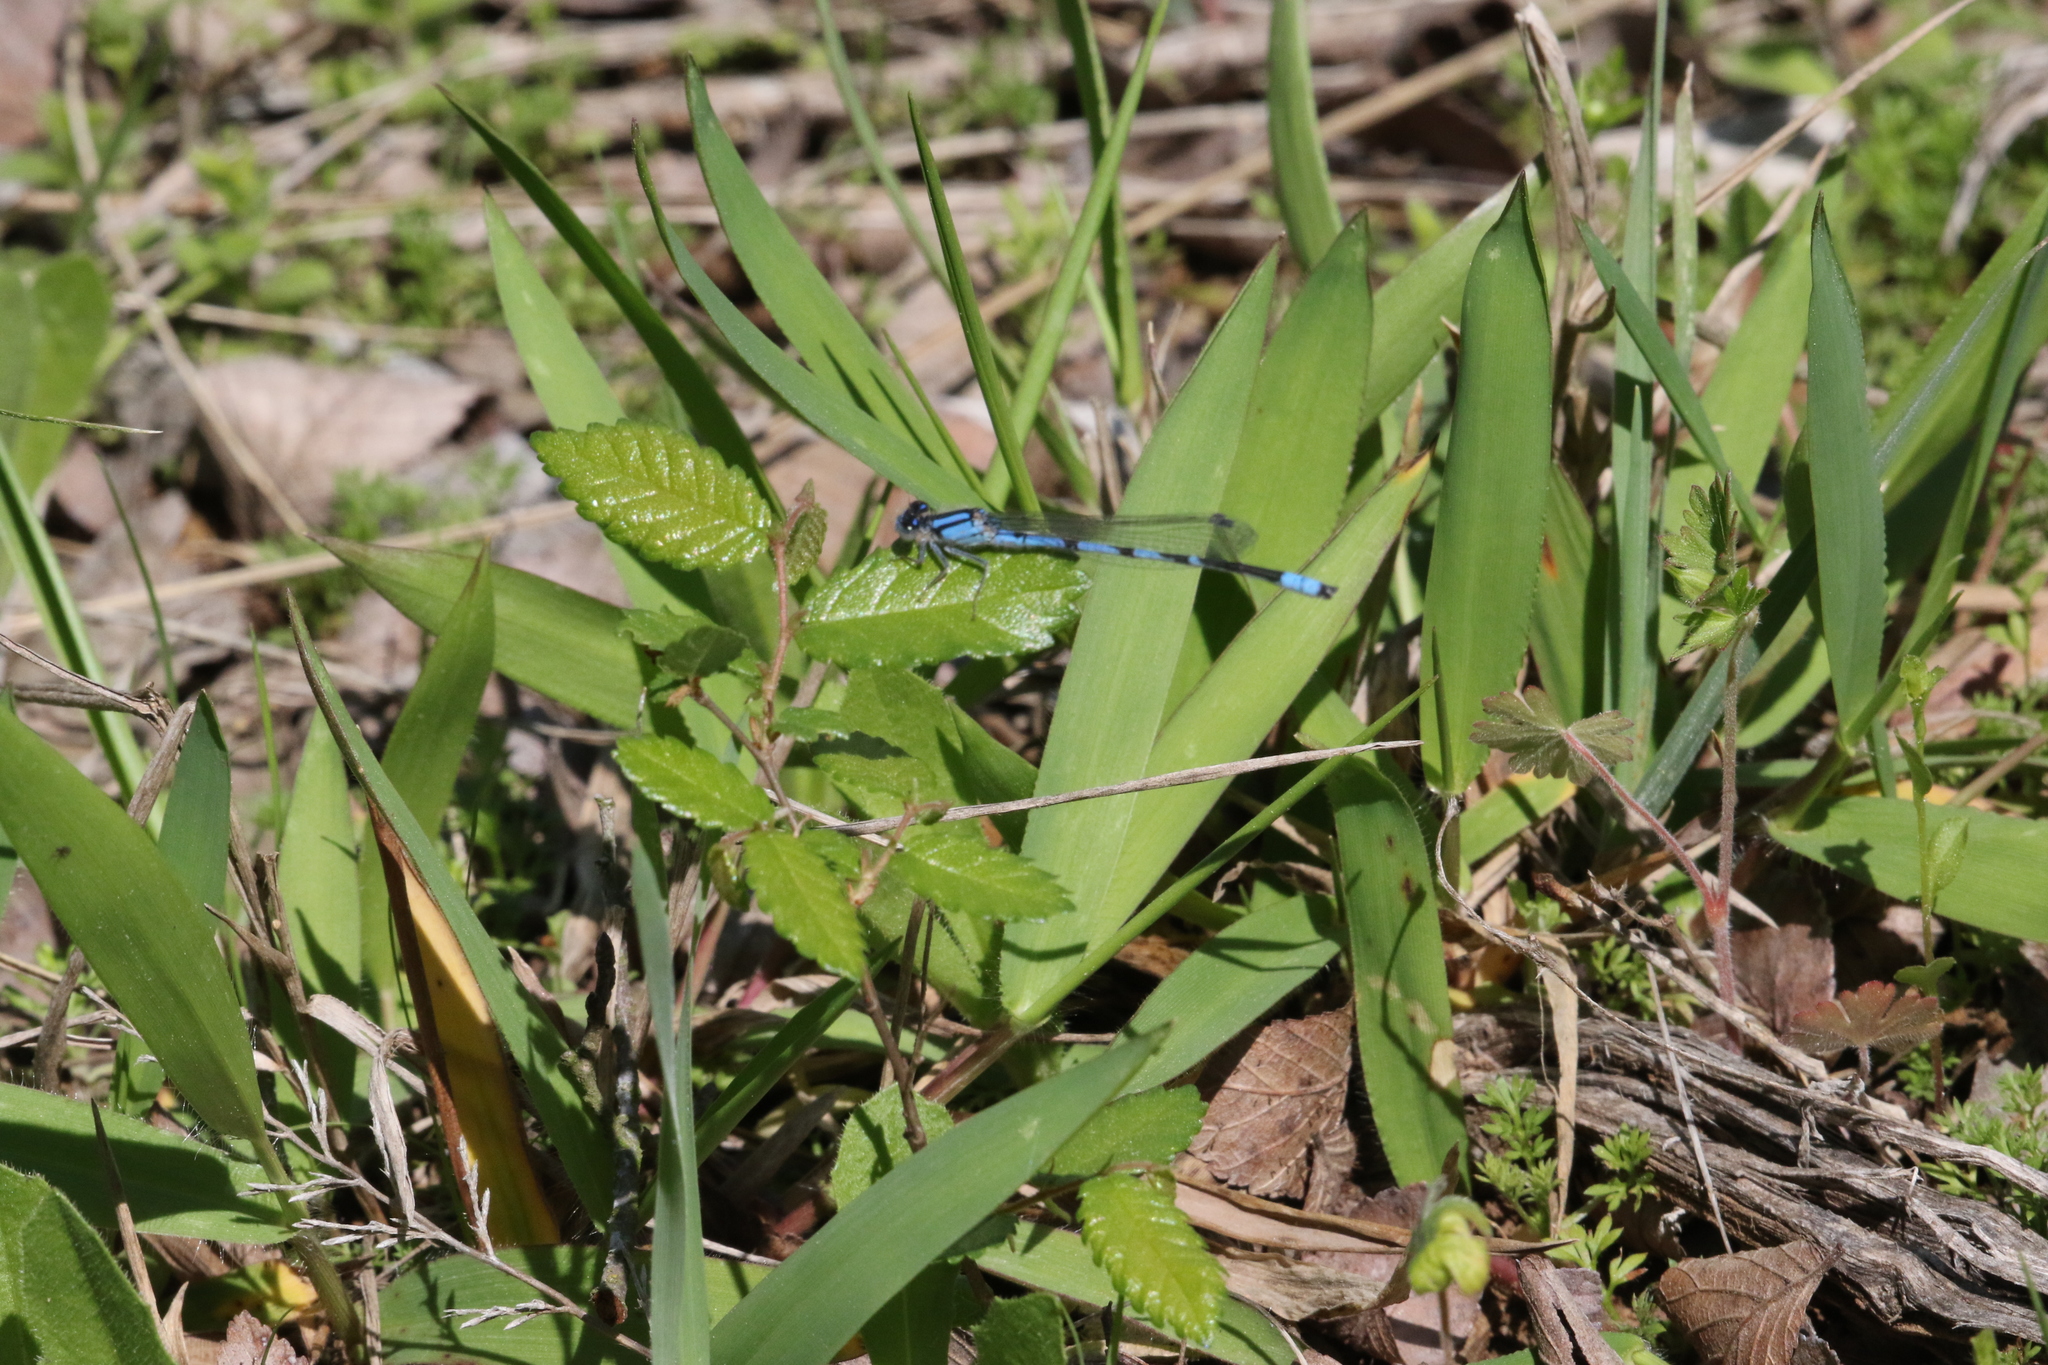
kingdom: Animalia
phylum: Arthropoda
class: Insecta
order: Odonata
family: Coenagrionidae
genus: Enallagma
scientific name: Enallagma civile
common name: Damselfly
